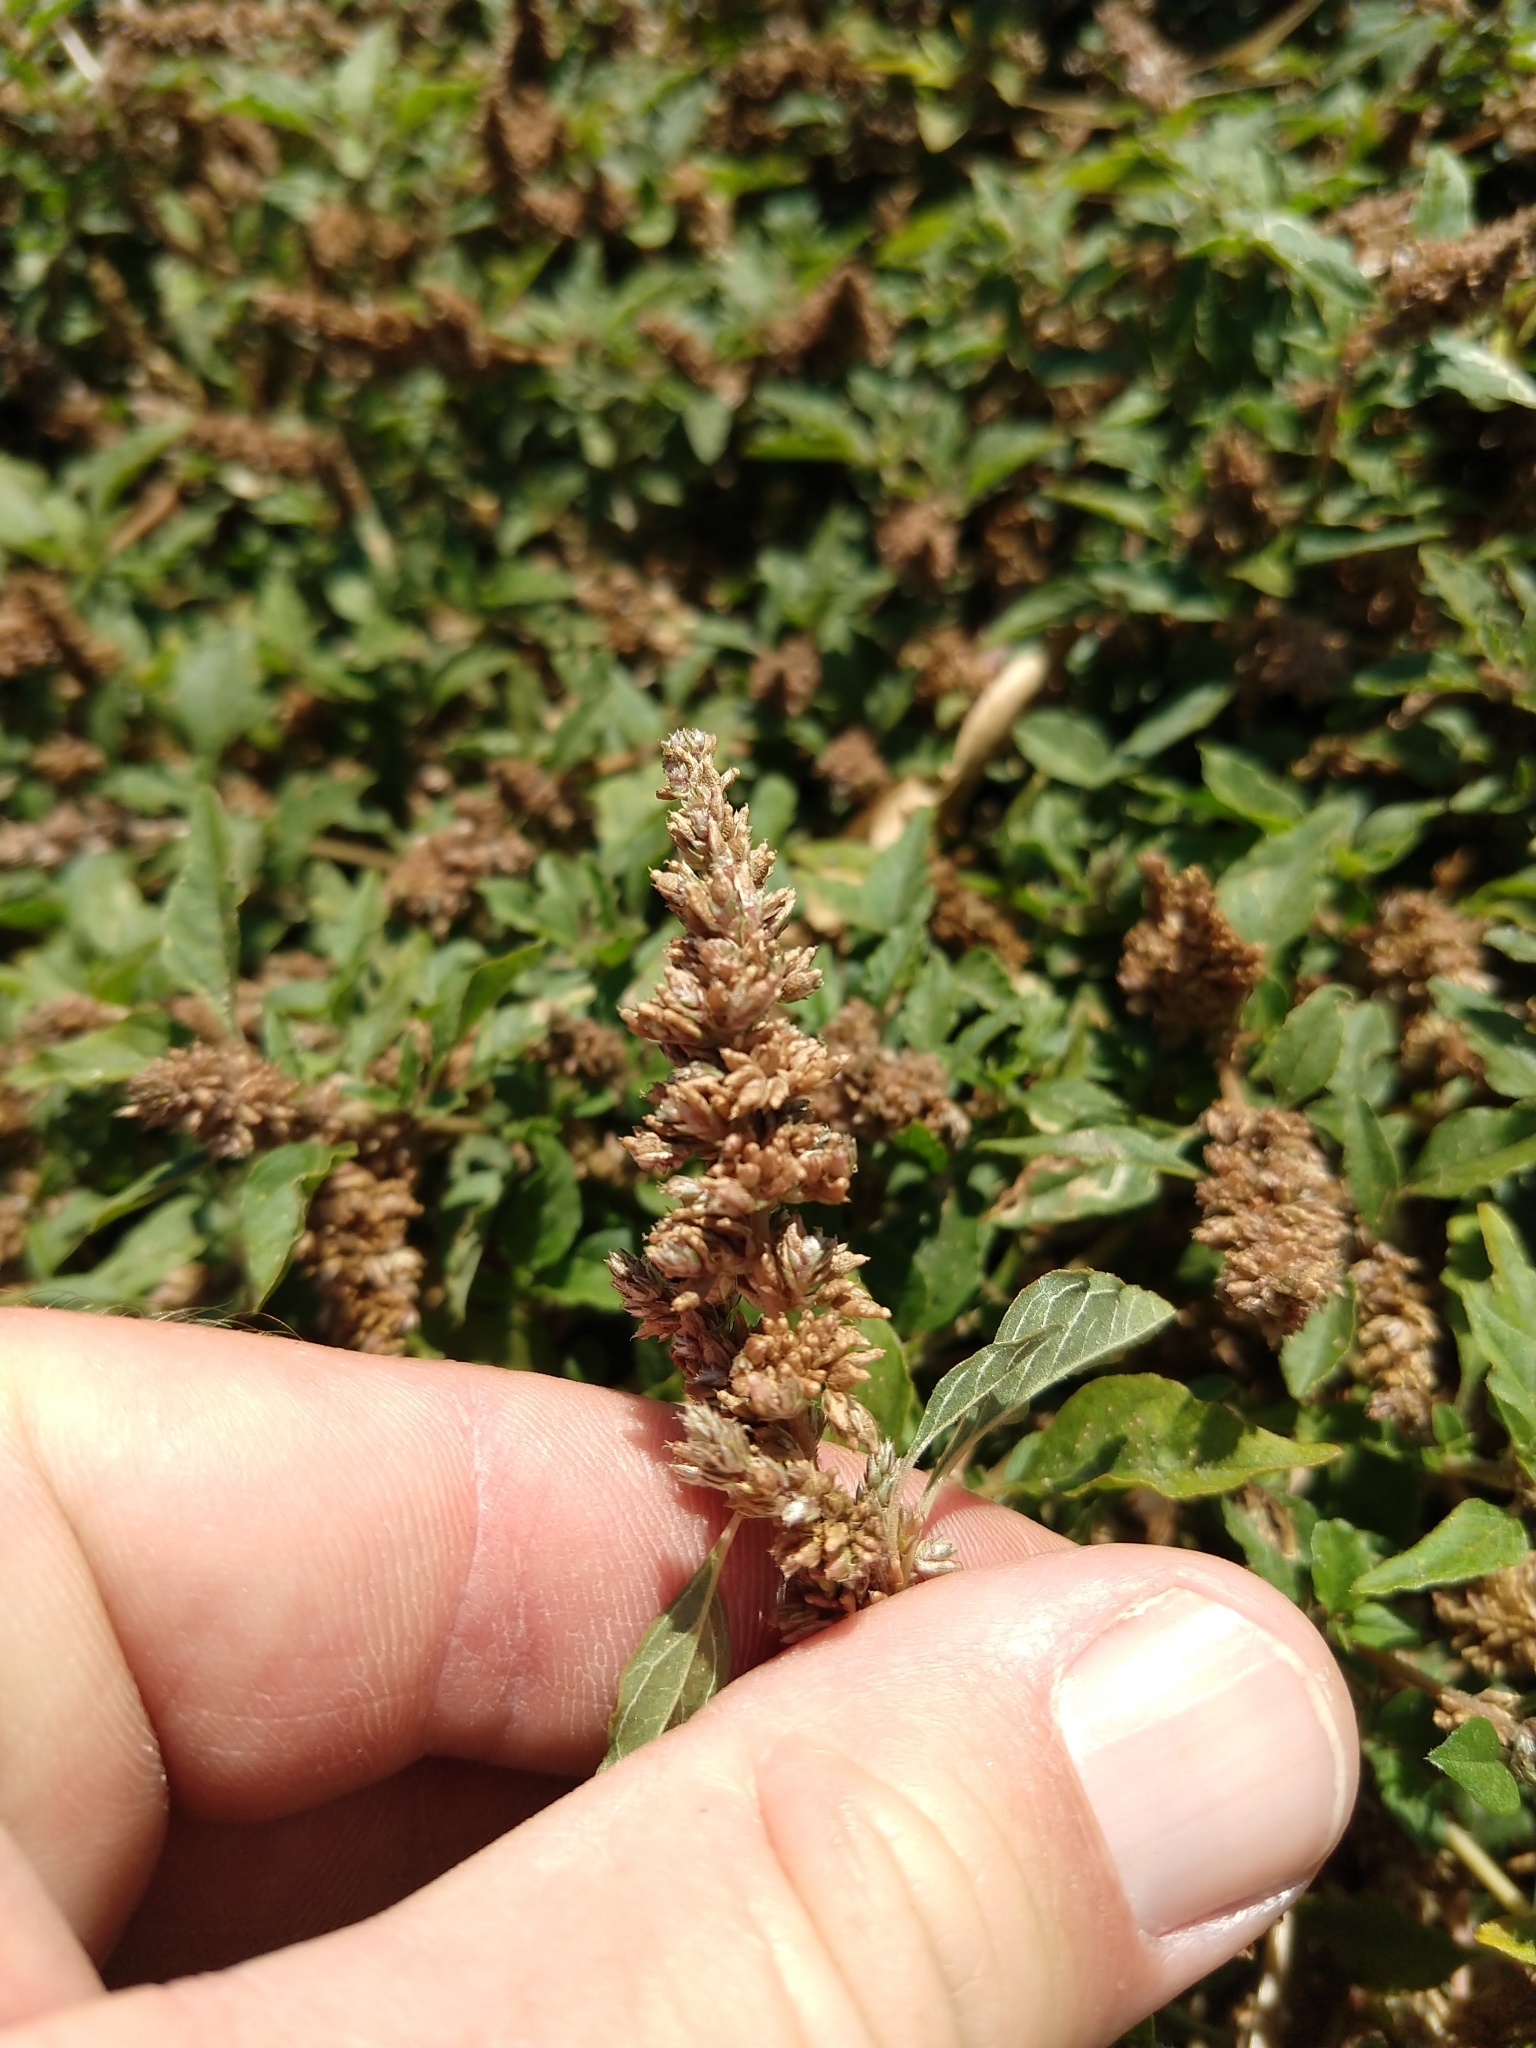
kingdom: Plantae
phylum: Tracheophyta
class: Magnoliopsida
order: Caryophyllales
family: Amaranthaceae
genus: Amaranthus
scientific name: Amaranthus deflexus
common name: Perennial pigweed
